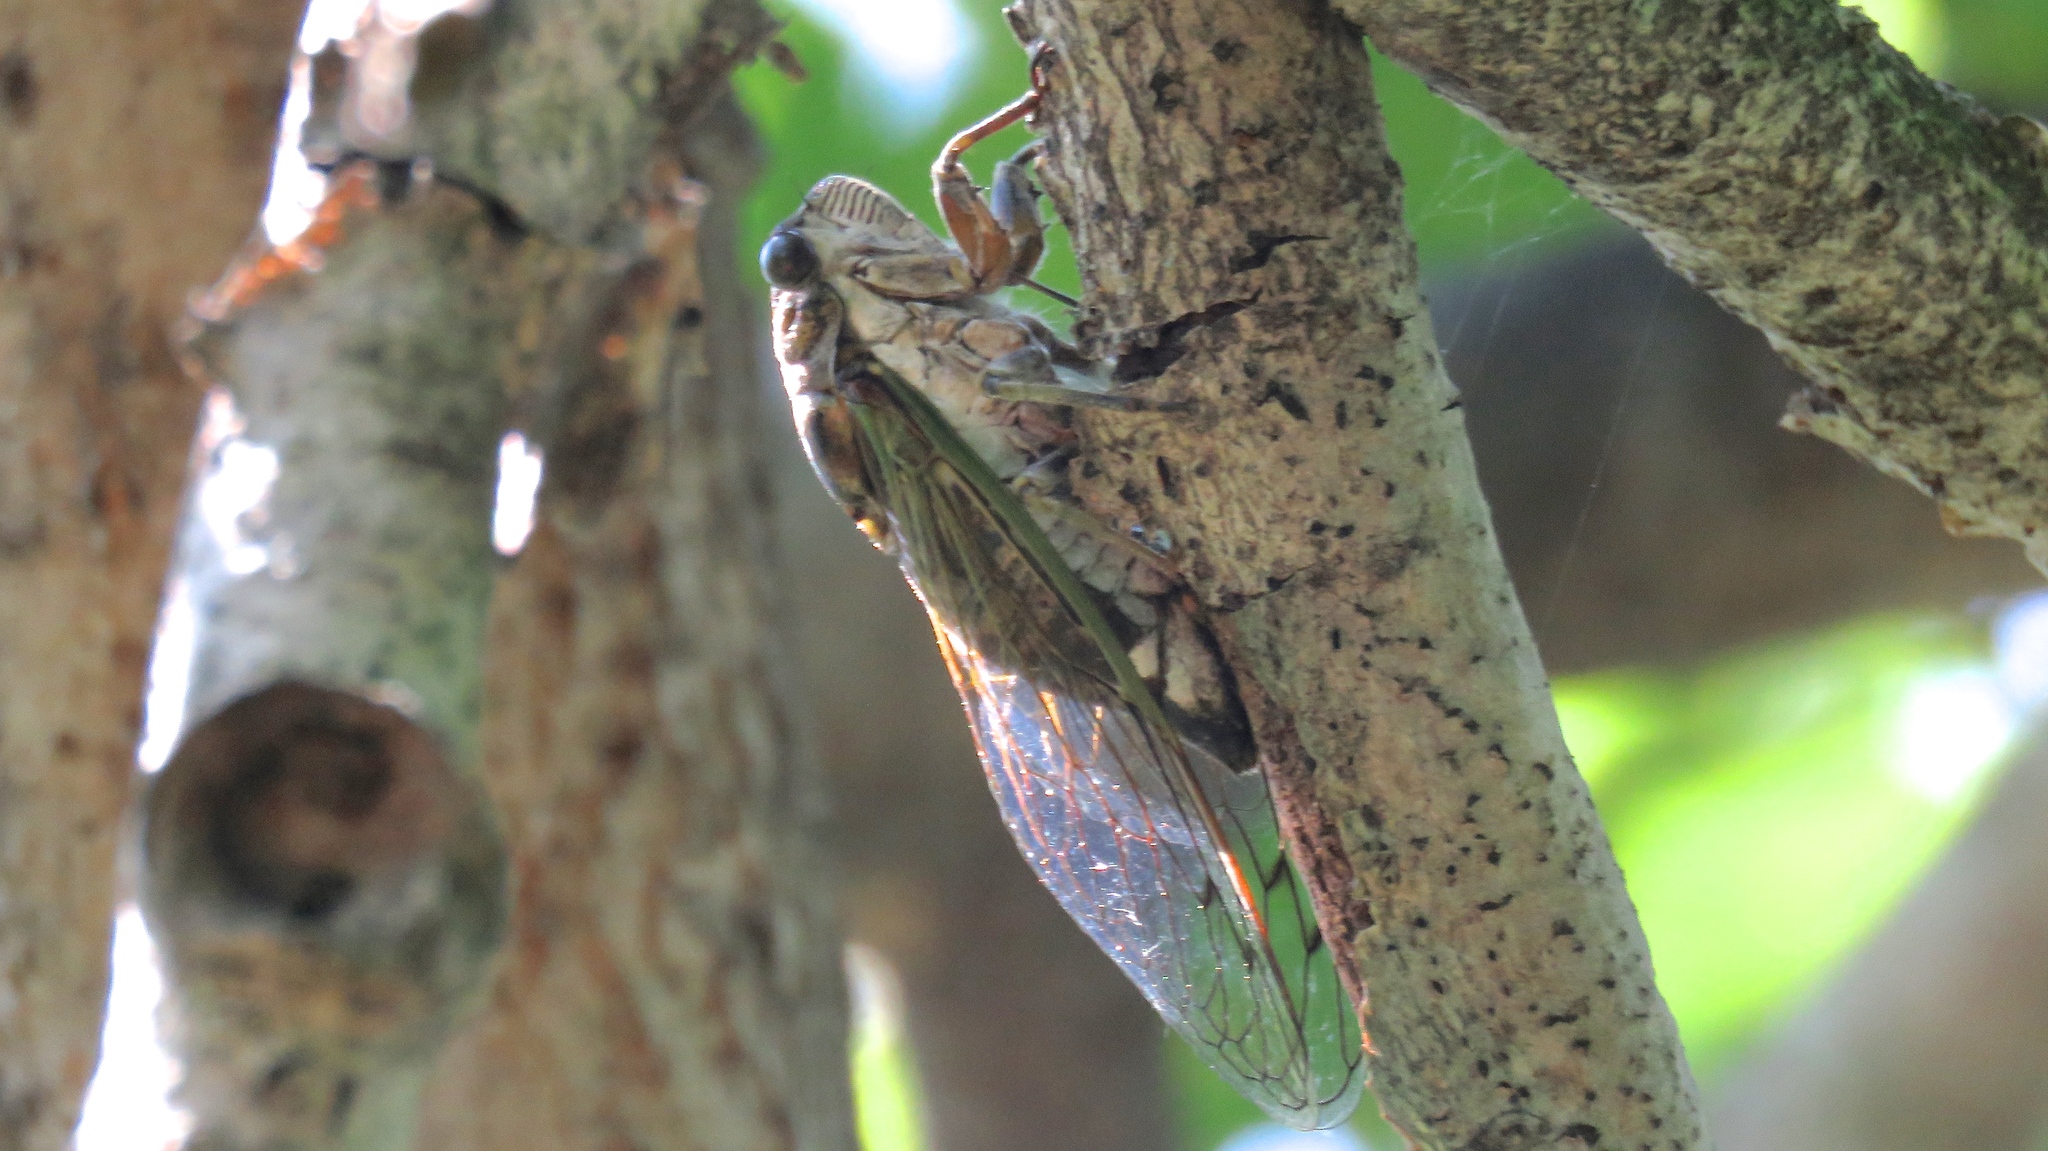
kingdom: Animalia
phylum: Arthropoda
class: Insecta
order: Hemiptera
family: Cicadidae
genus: Neotibicen
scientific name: Neotibicen canicularis
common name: God-day cicada
